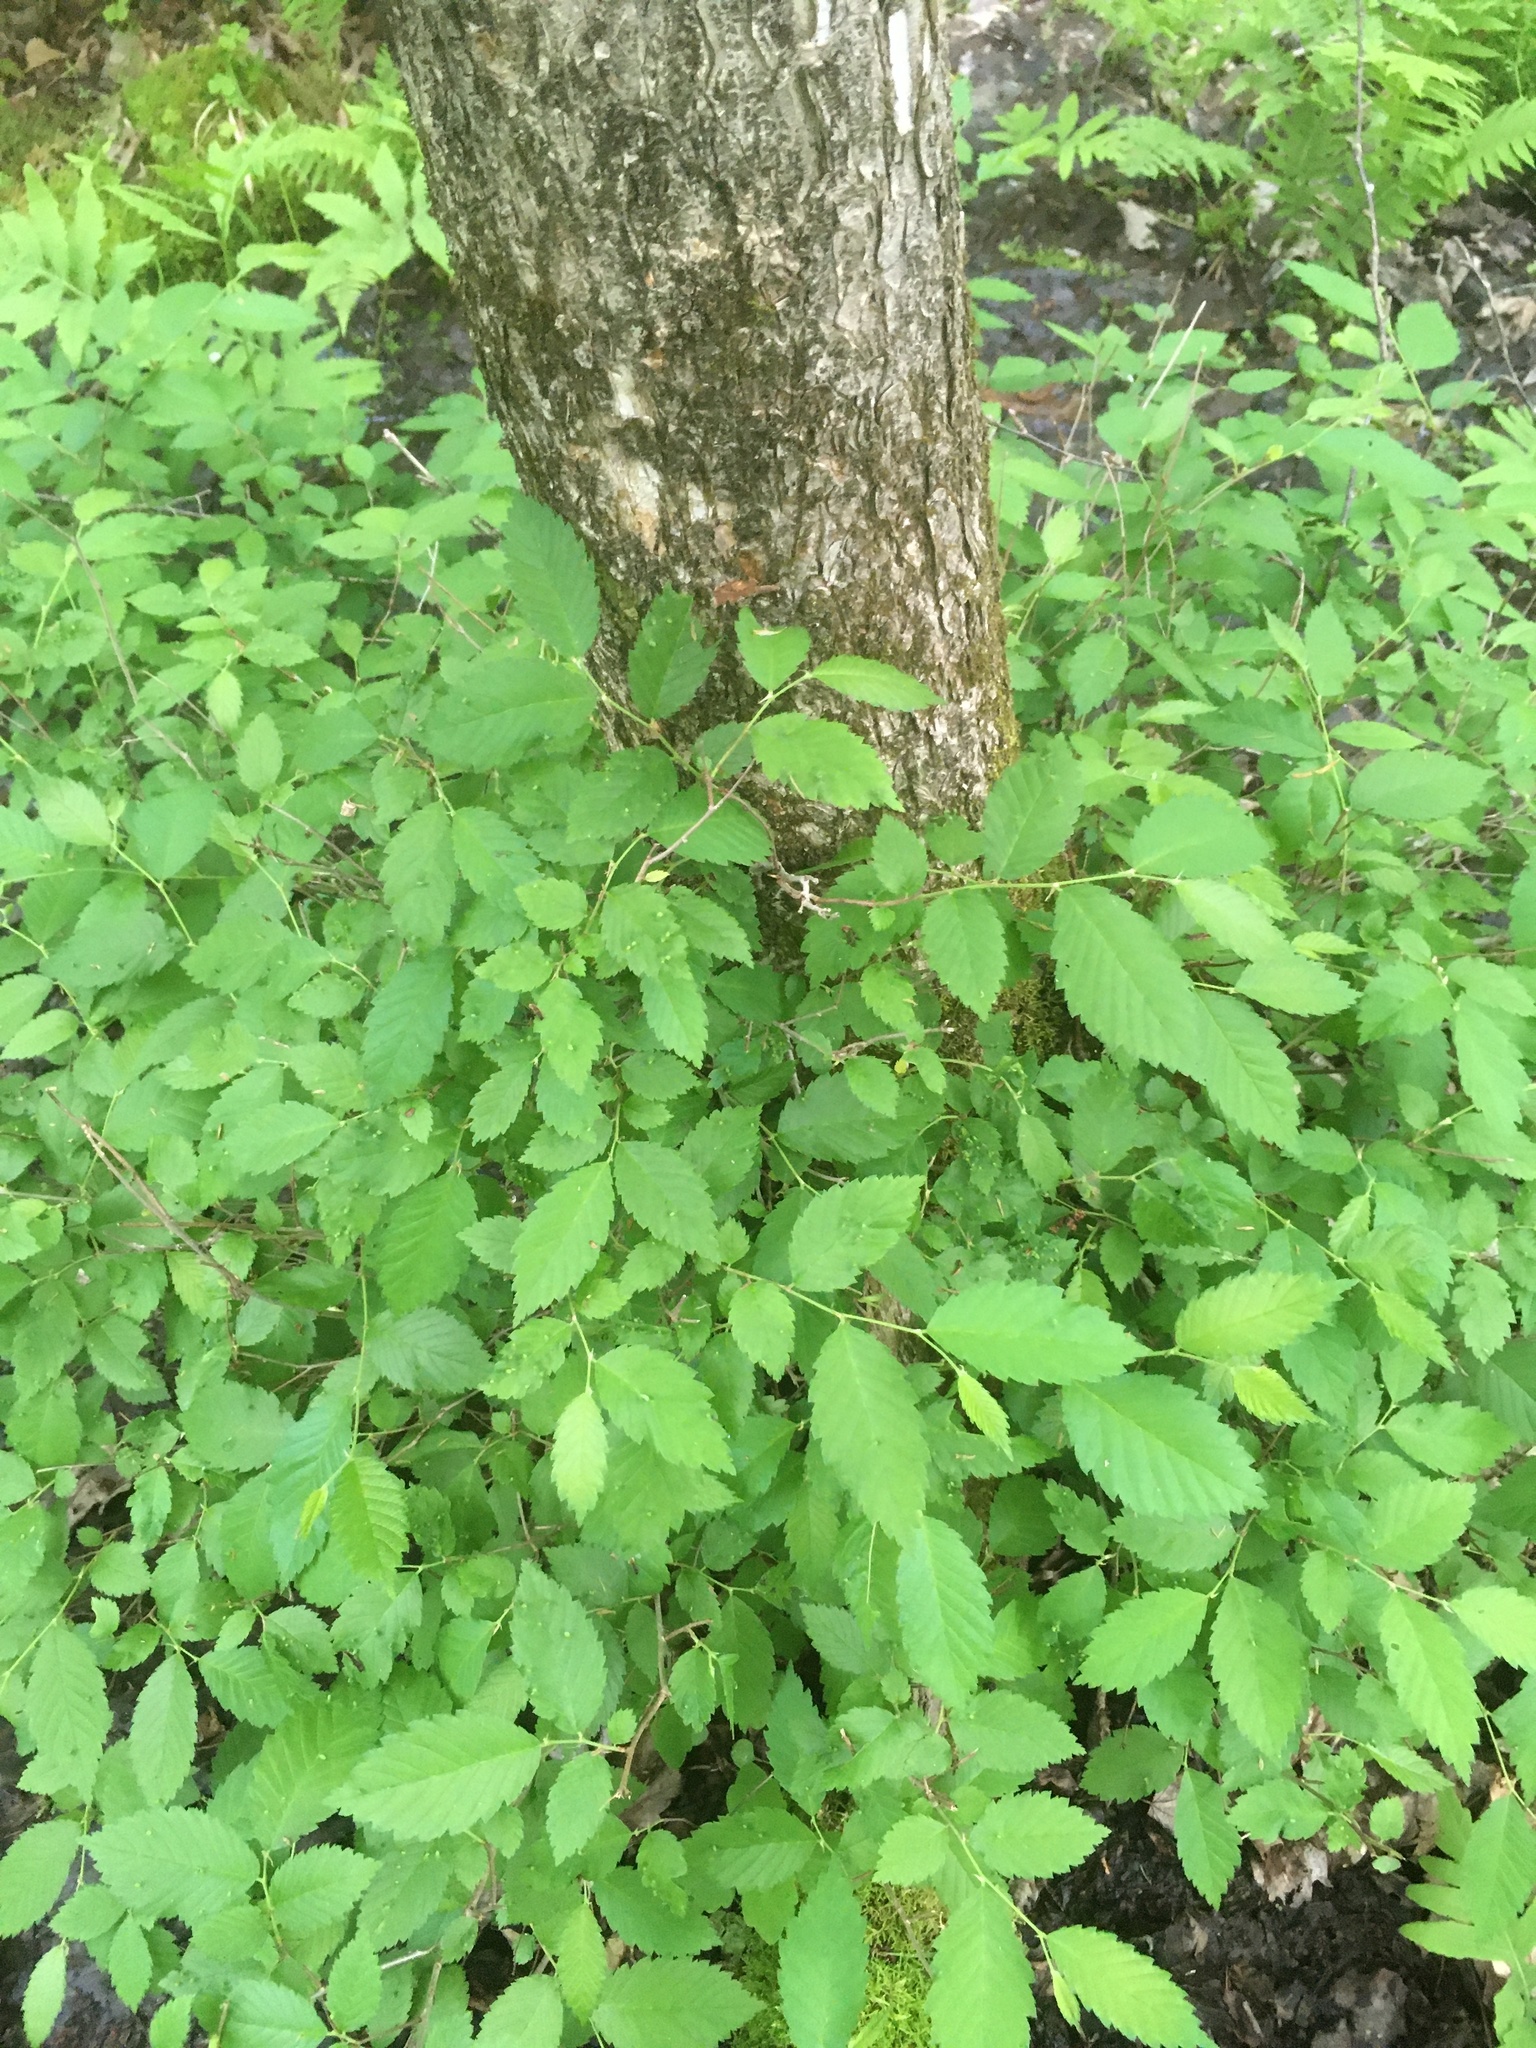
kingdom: Plantae
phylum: Tracheophyta
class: Magnoliopsida
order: Rosales
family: Ulmaceae
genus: Ulmus
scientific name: Ulmus americana
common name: American elm
